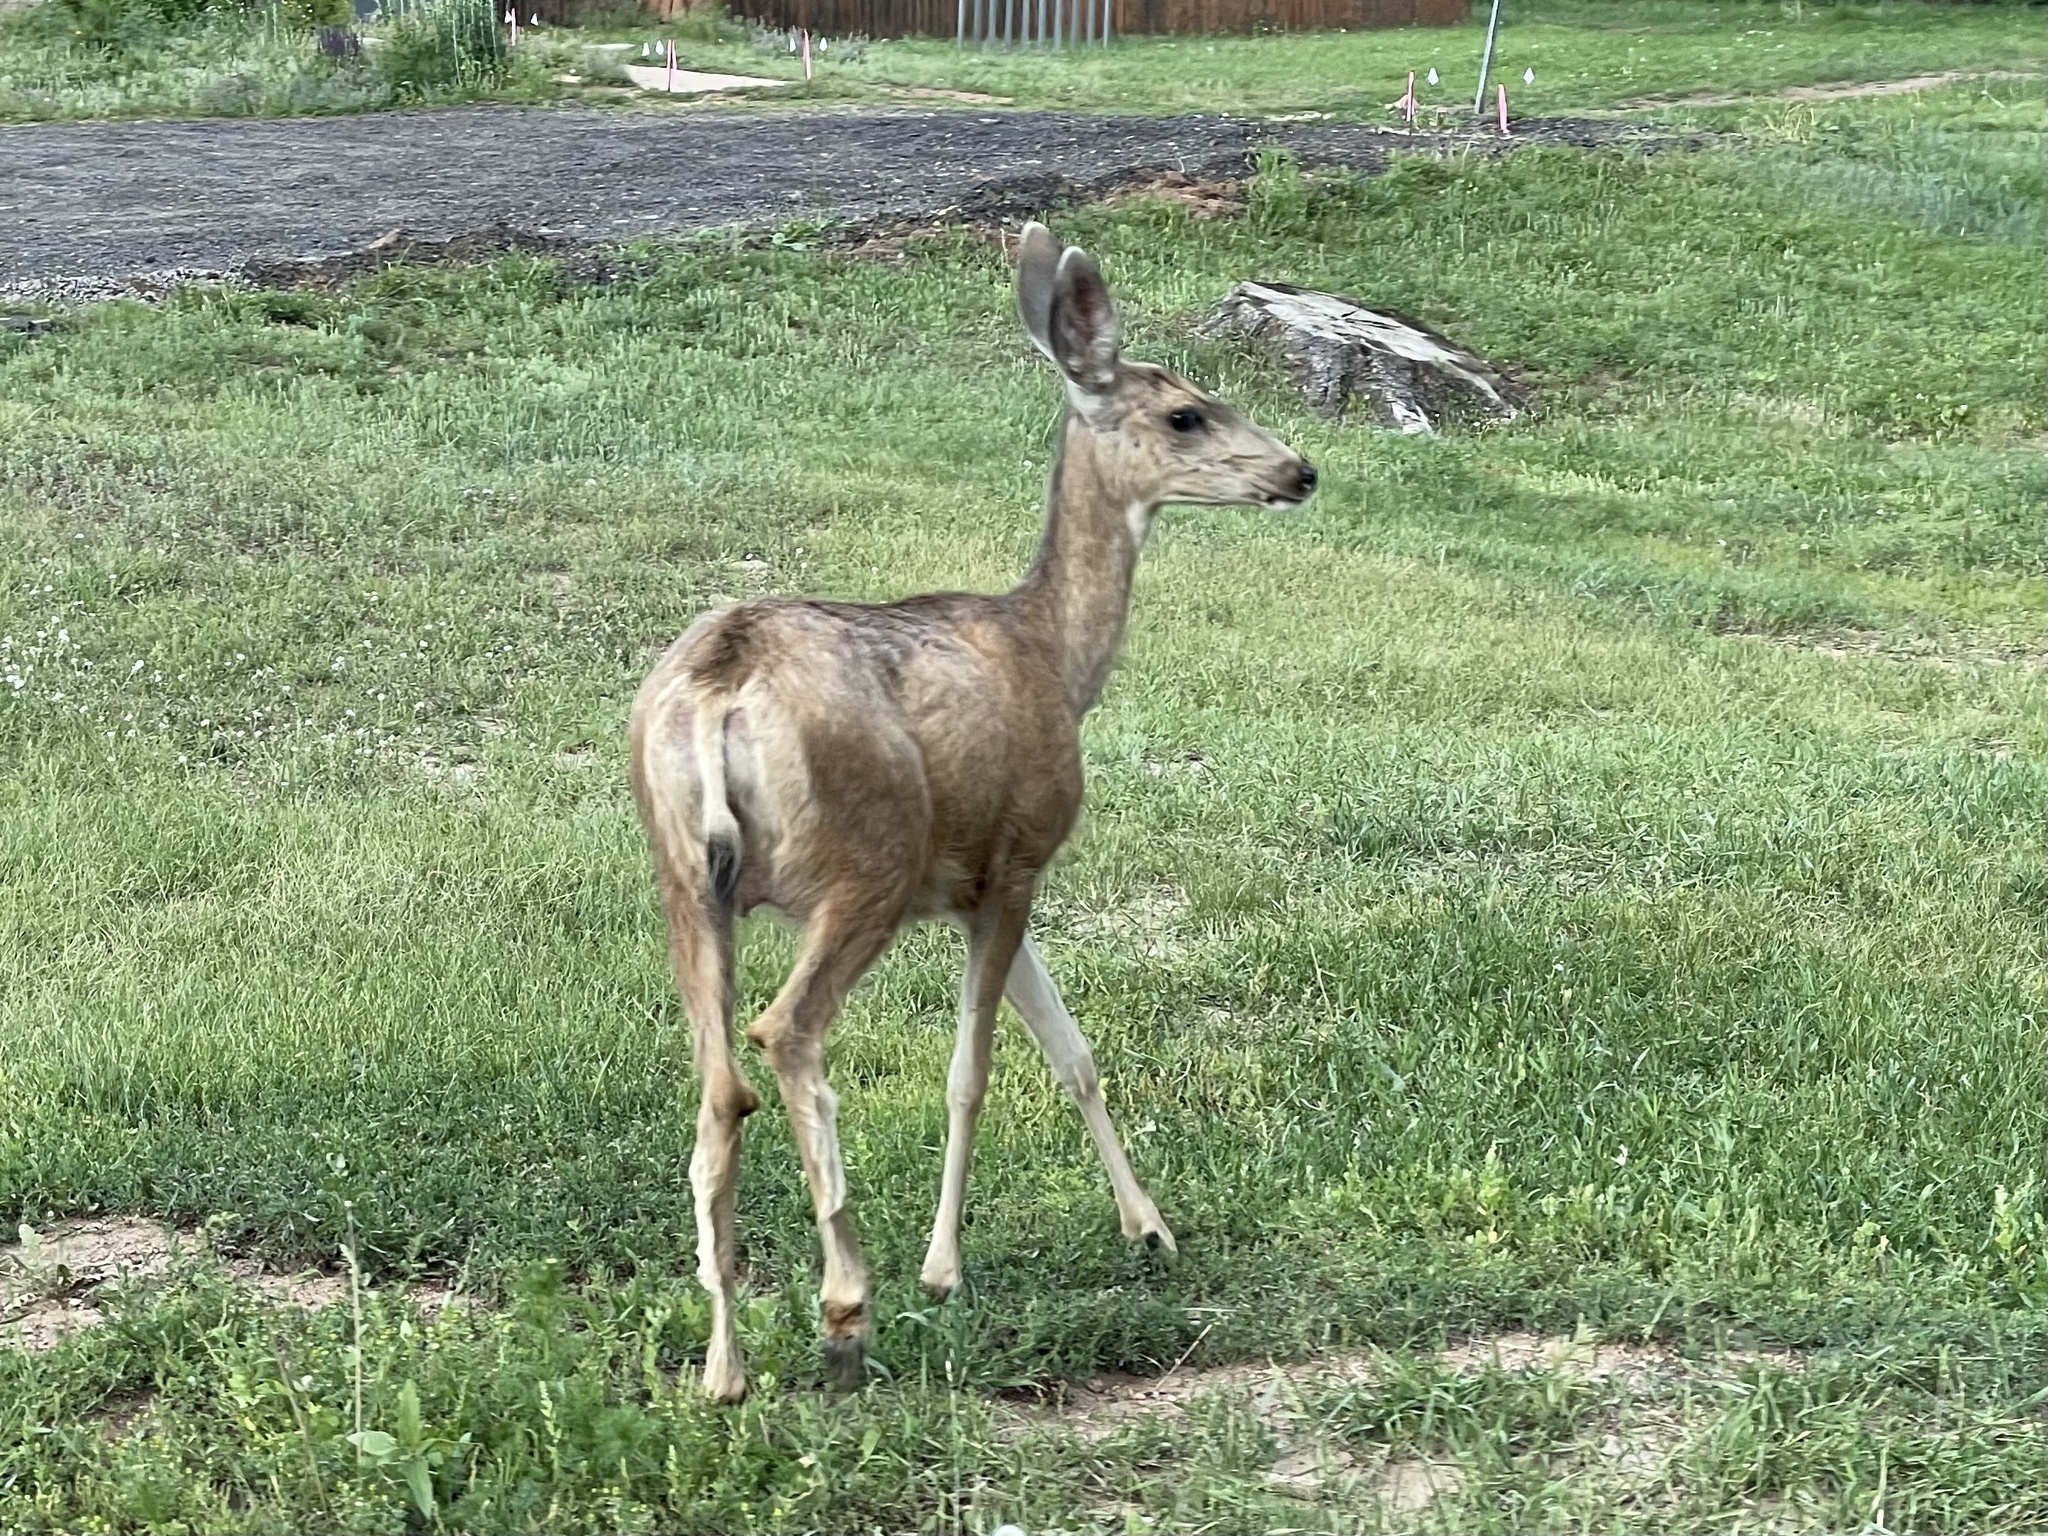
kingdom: Animalia
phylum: Chordata
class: Mammalia
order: Artiodactyla
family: Cervidae
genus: Odocoileus
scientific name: Odocoileus hemionus
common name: Mule deer
